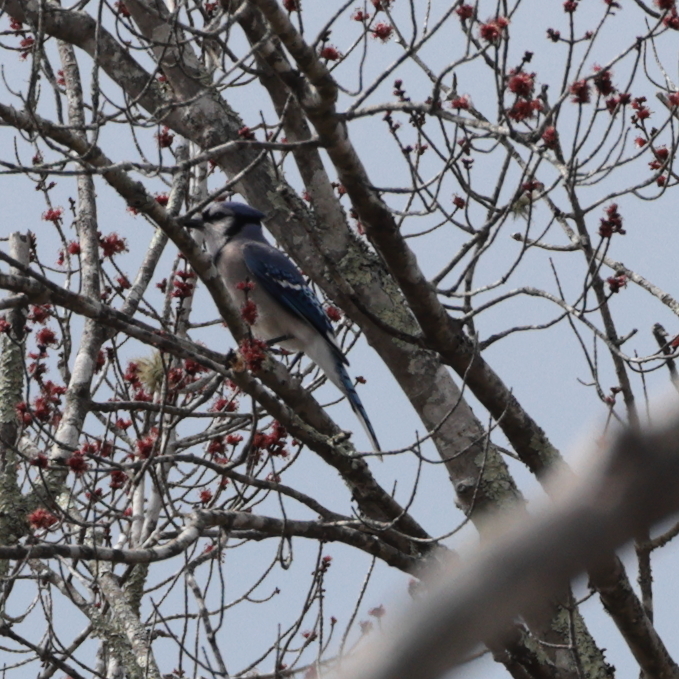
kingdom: Animalia
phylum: Chordata
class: Aves
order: Passeriformes
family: Corvidae
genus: Cyanocitta
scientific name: Cyanocitta cristata
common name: Blue jay
